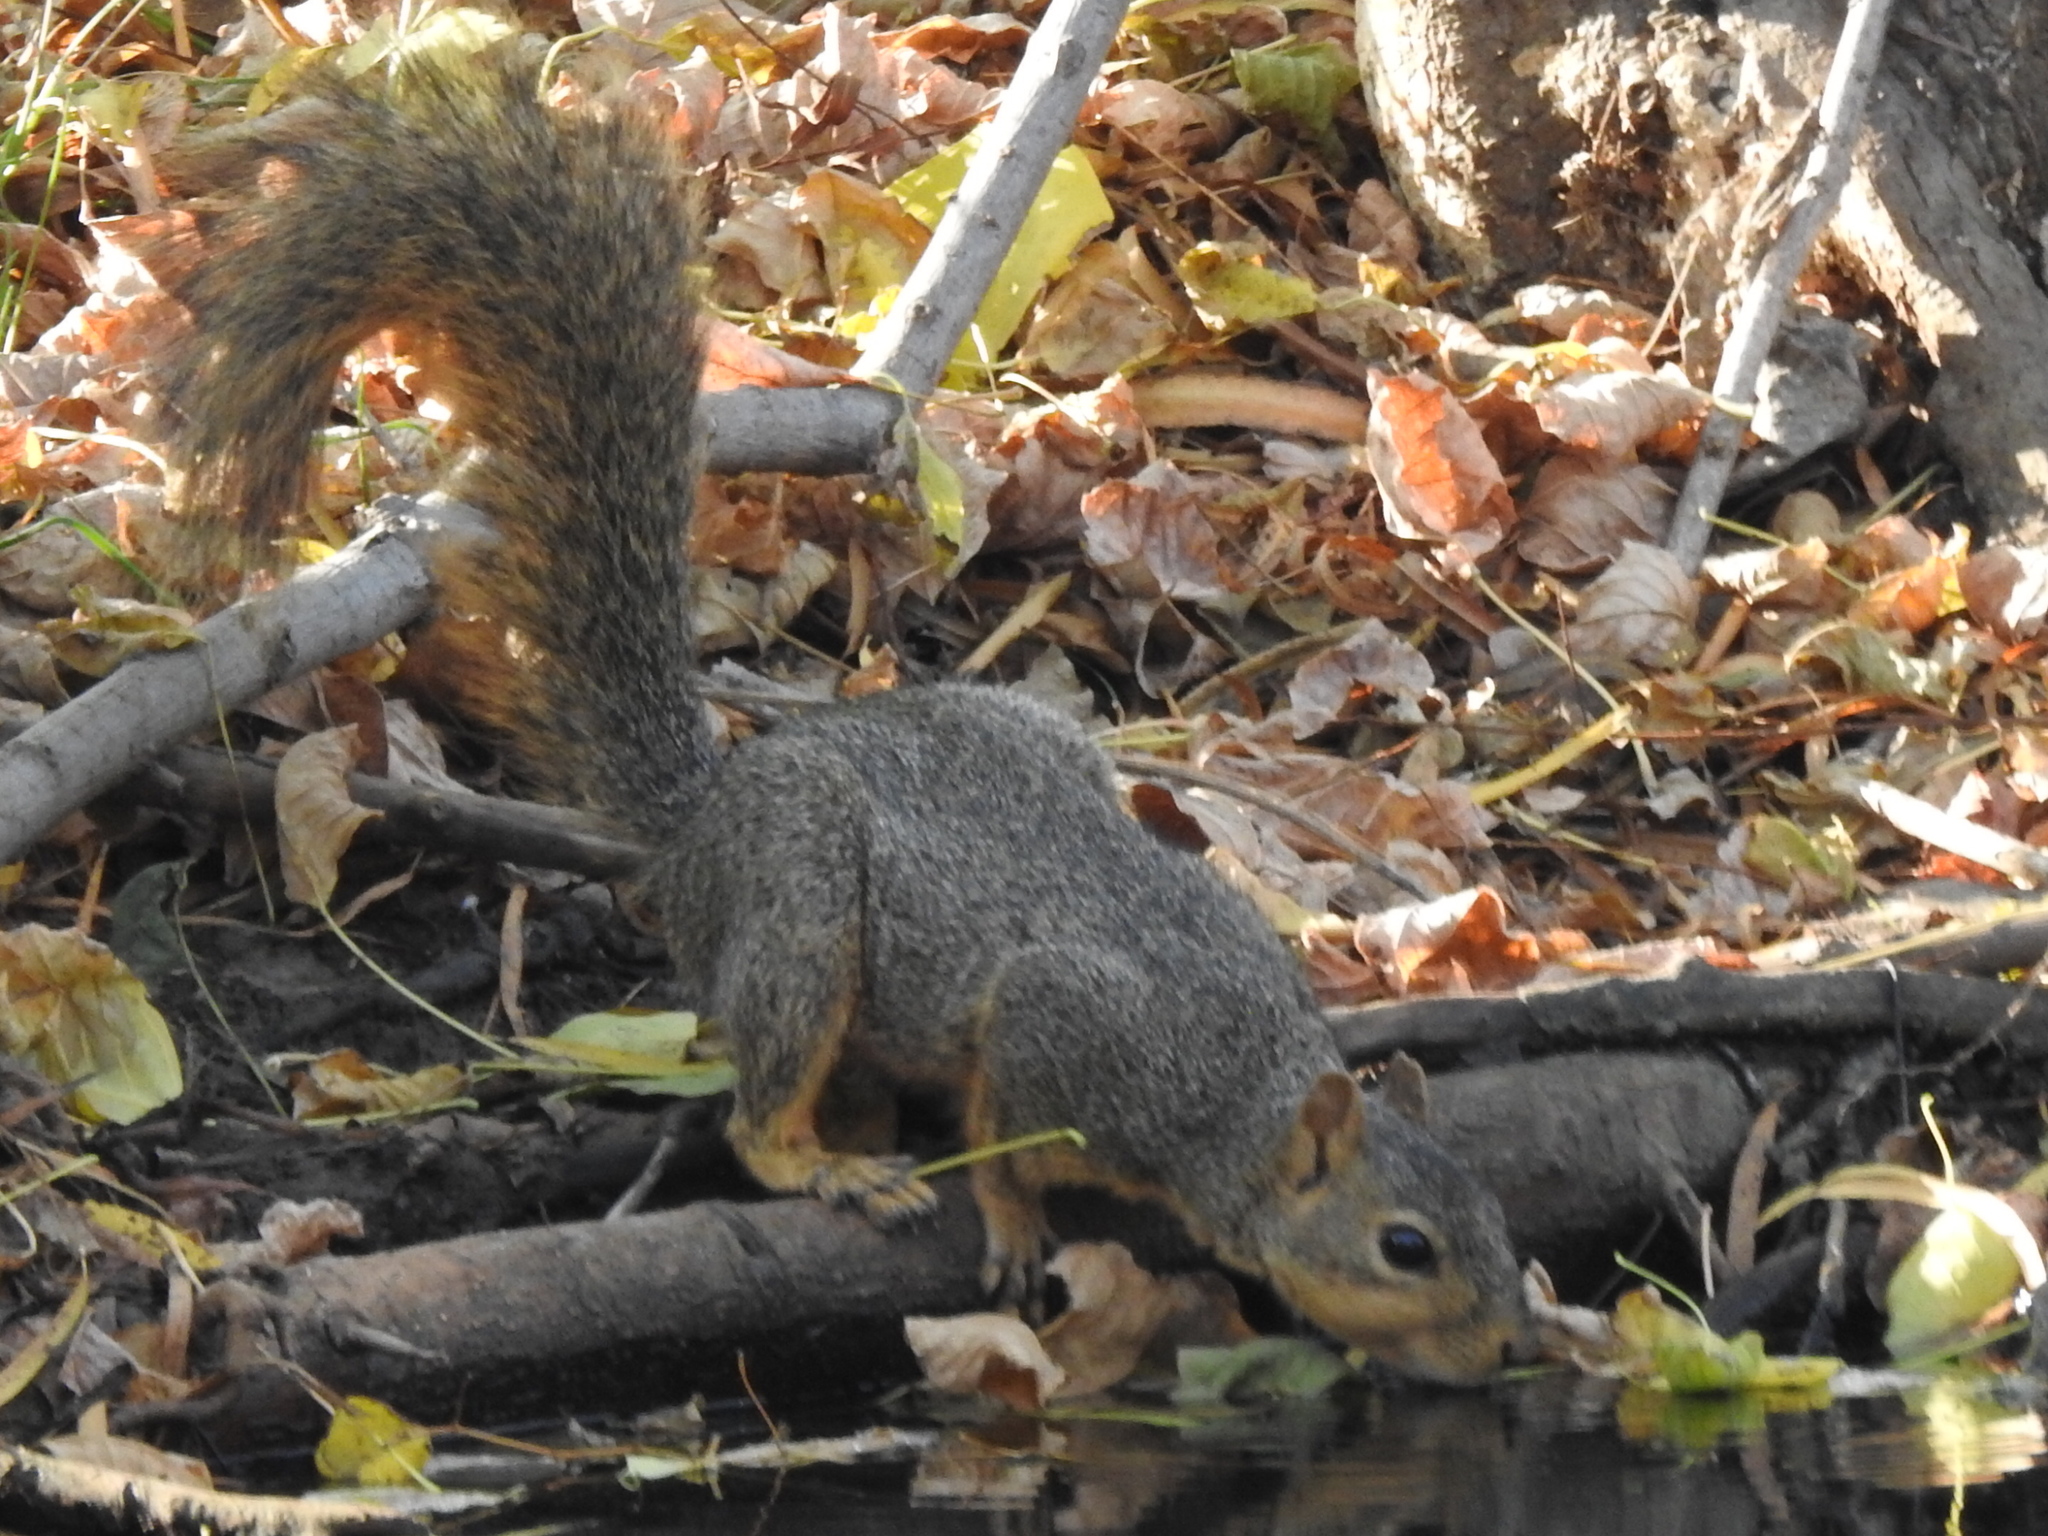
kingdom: Animalia
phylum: Chordata
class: Mammalia
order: Rodentia
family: Sciuridae
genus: Sciurus
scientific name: Sciurus niger
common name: Fox squirrel
